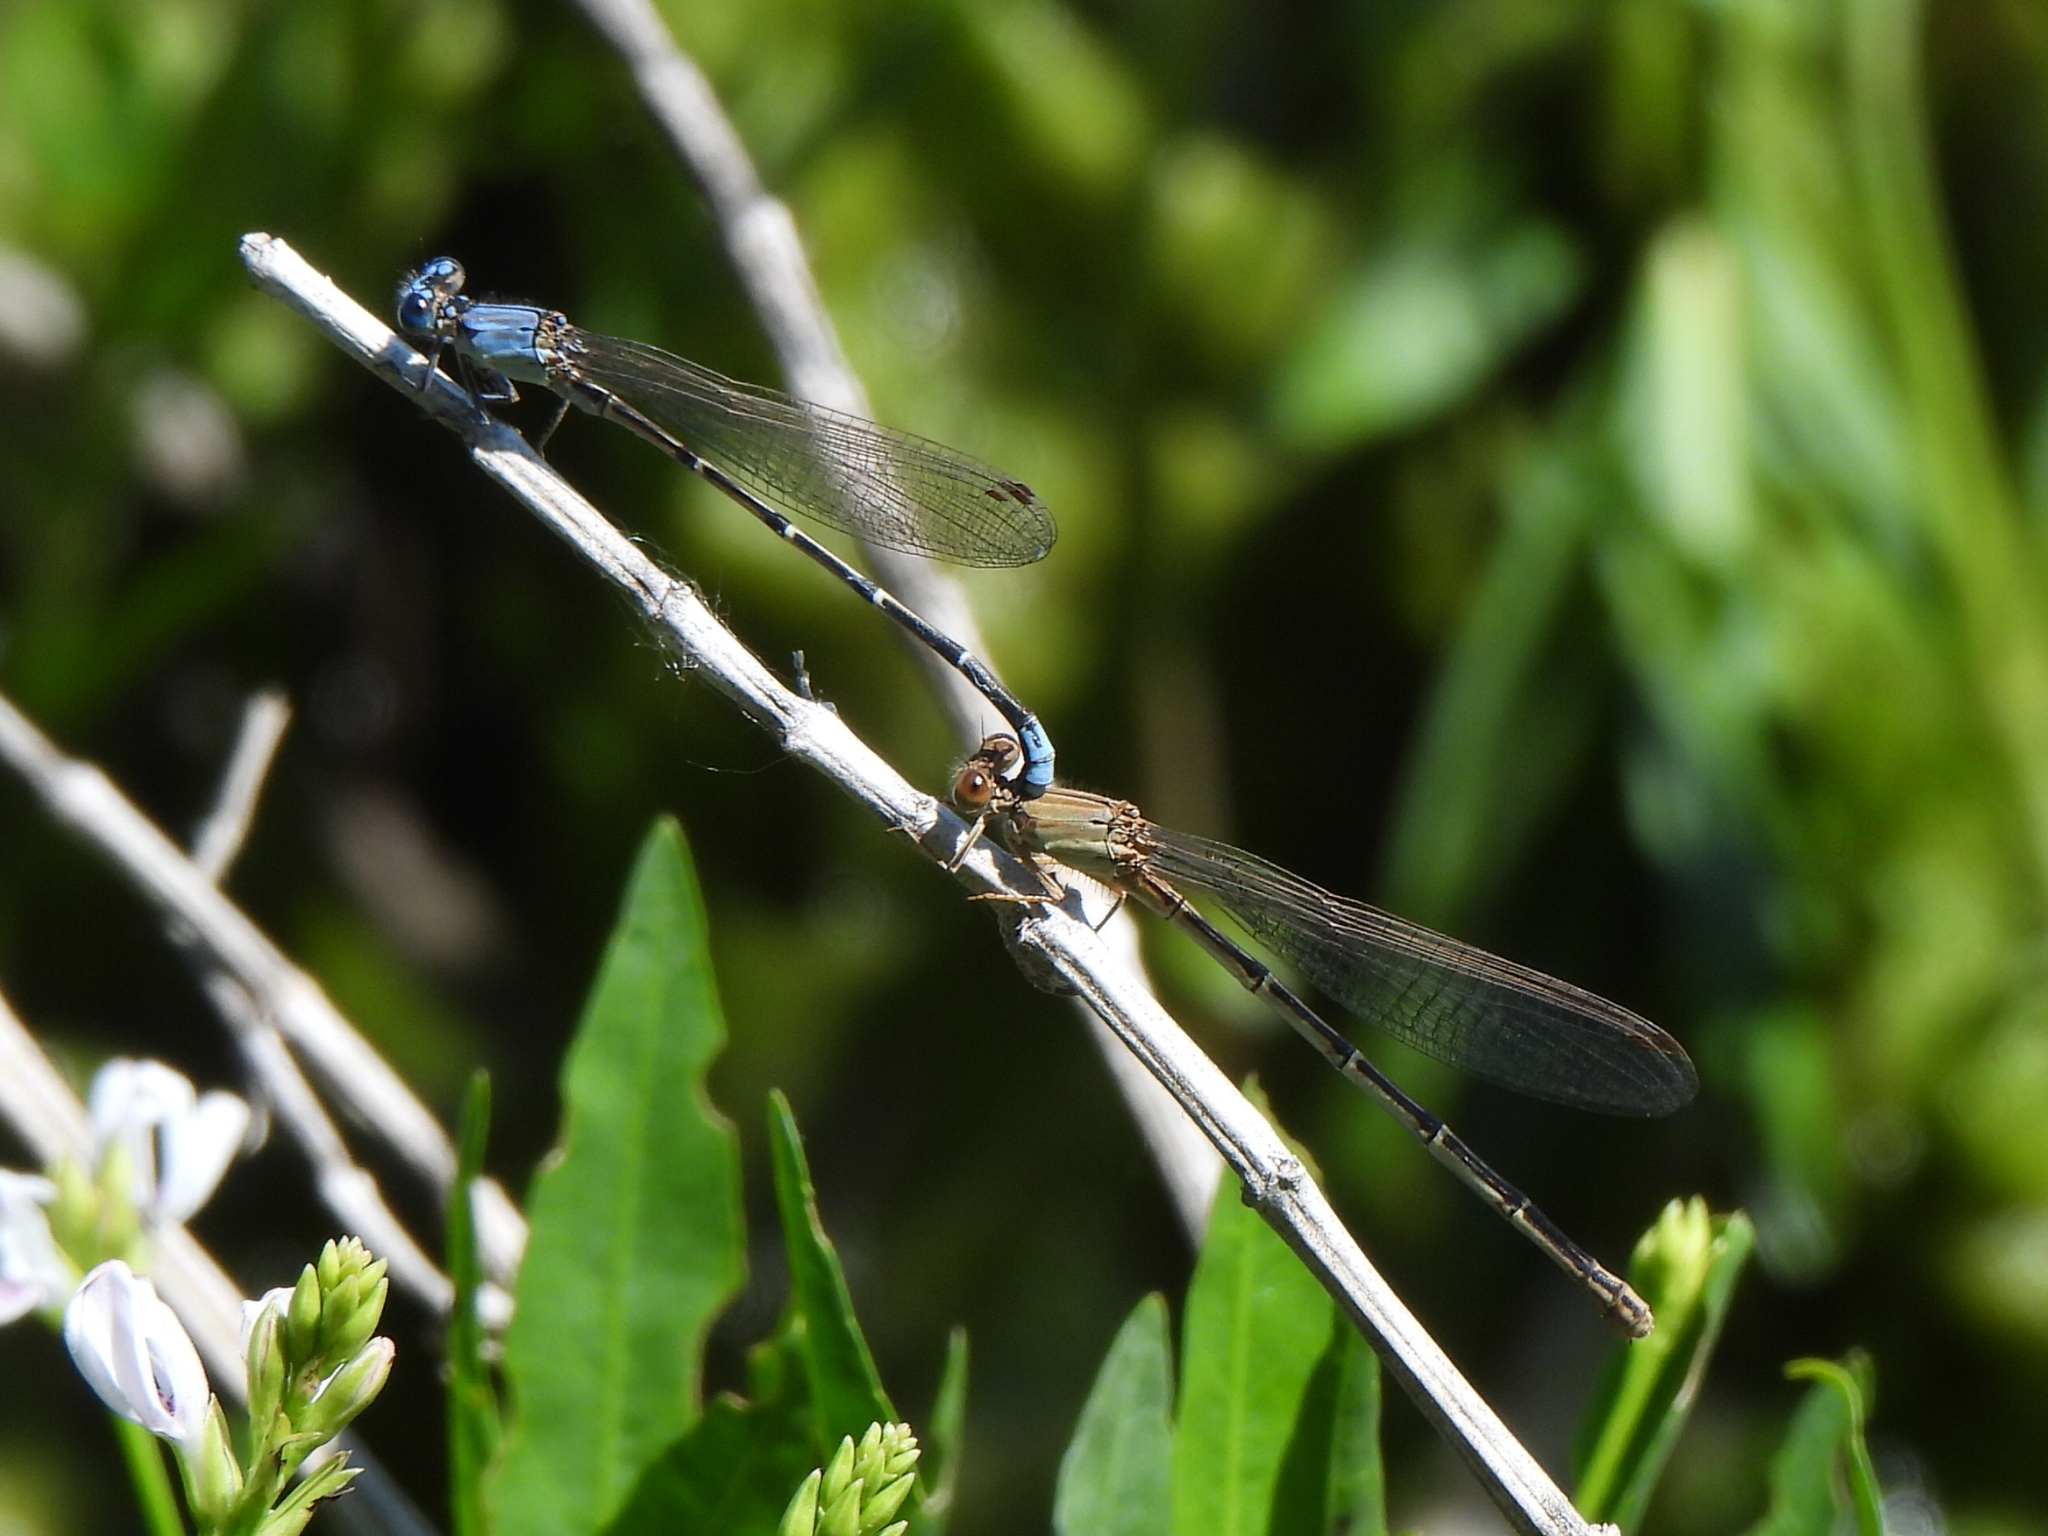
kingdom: Animalia
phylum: Arthropoda
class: Insecta
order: Odonata
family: Coenagrionidae
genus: Argia
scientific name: Argia apicalis
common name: Blue-fronted dancer
